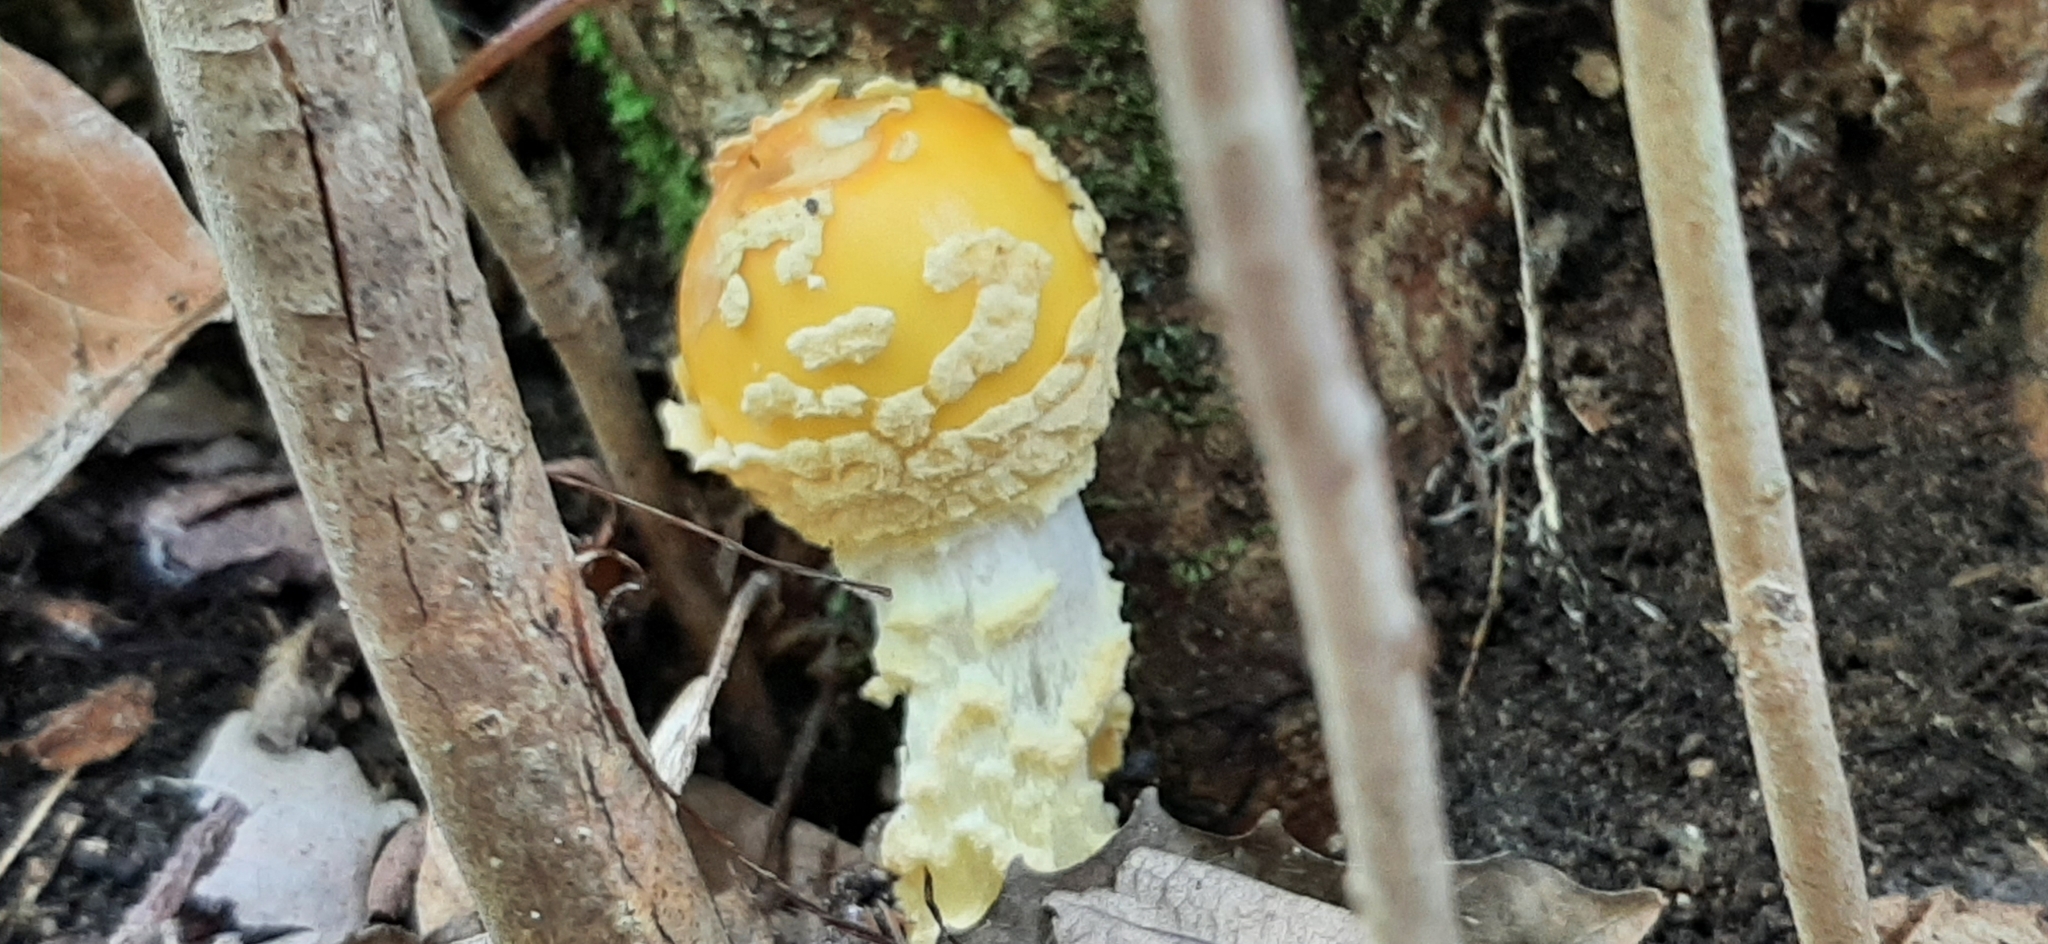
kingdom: Fungi
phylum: Basidiomycota
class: Agaricomycetes
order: Agaricales
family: Amanitaceae
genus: Amanita
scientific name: Amanita muscaria
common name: Fly agaric
